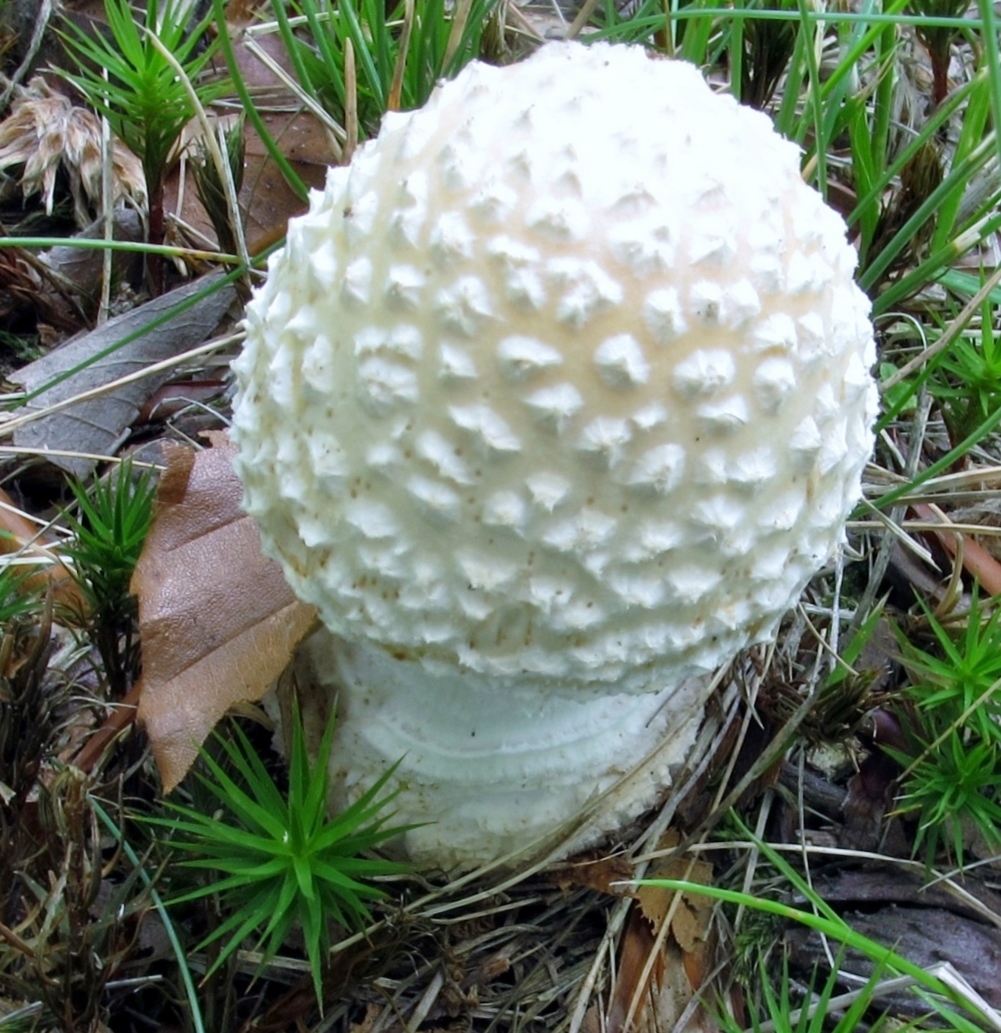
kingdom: Fungi
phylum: Basidiomycota
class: Agaricomycetes
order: Agaricales
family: Amanitaceae
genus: Amanita
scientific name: Amanita multisquamosa
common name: Small funnel-veil amanita
